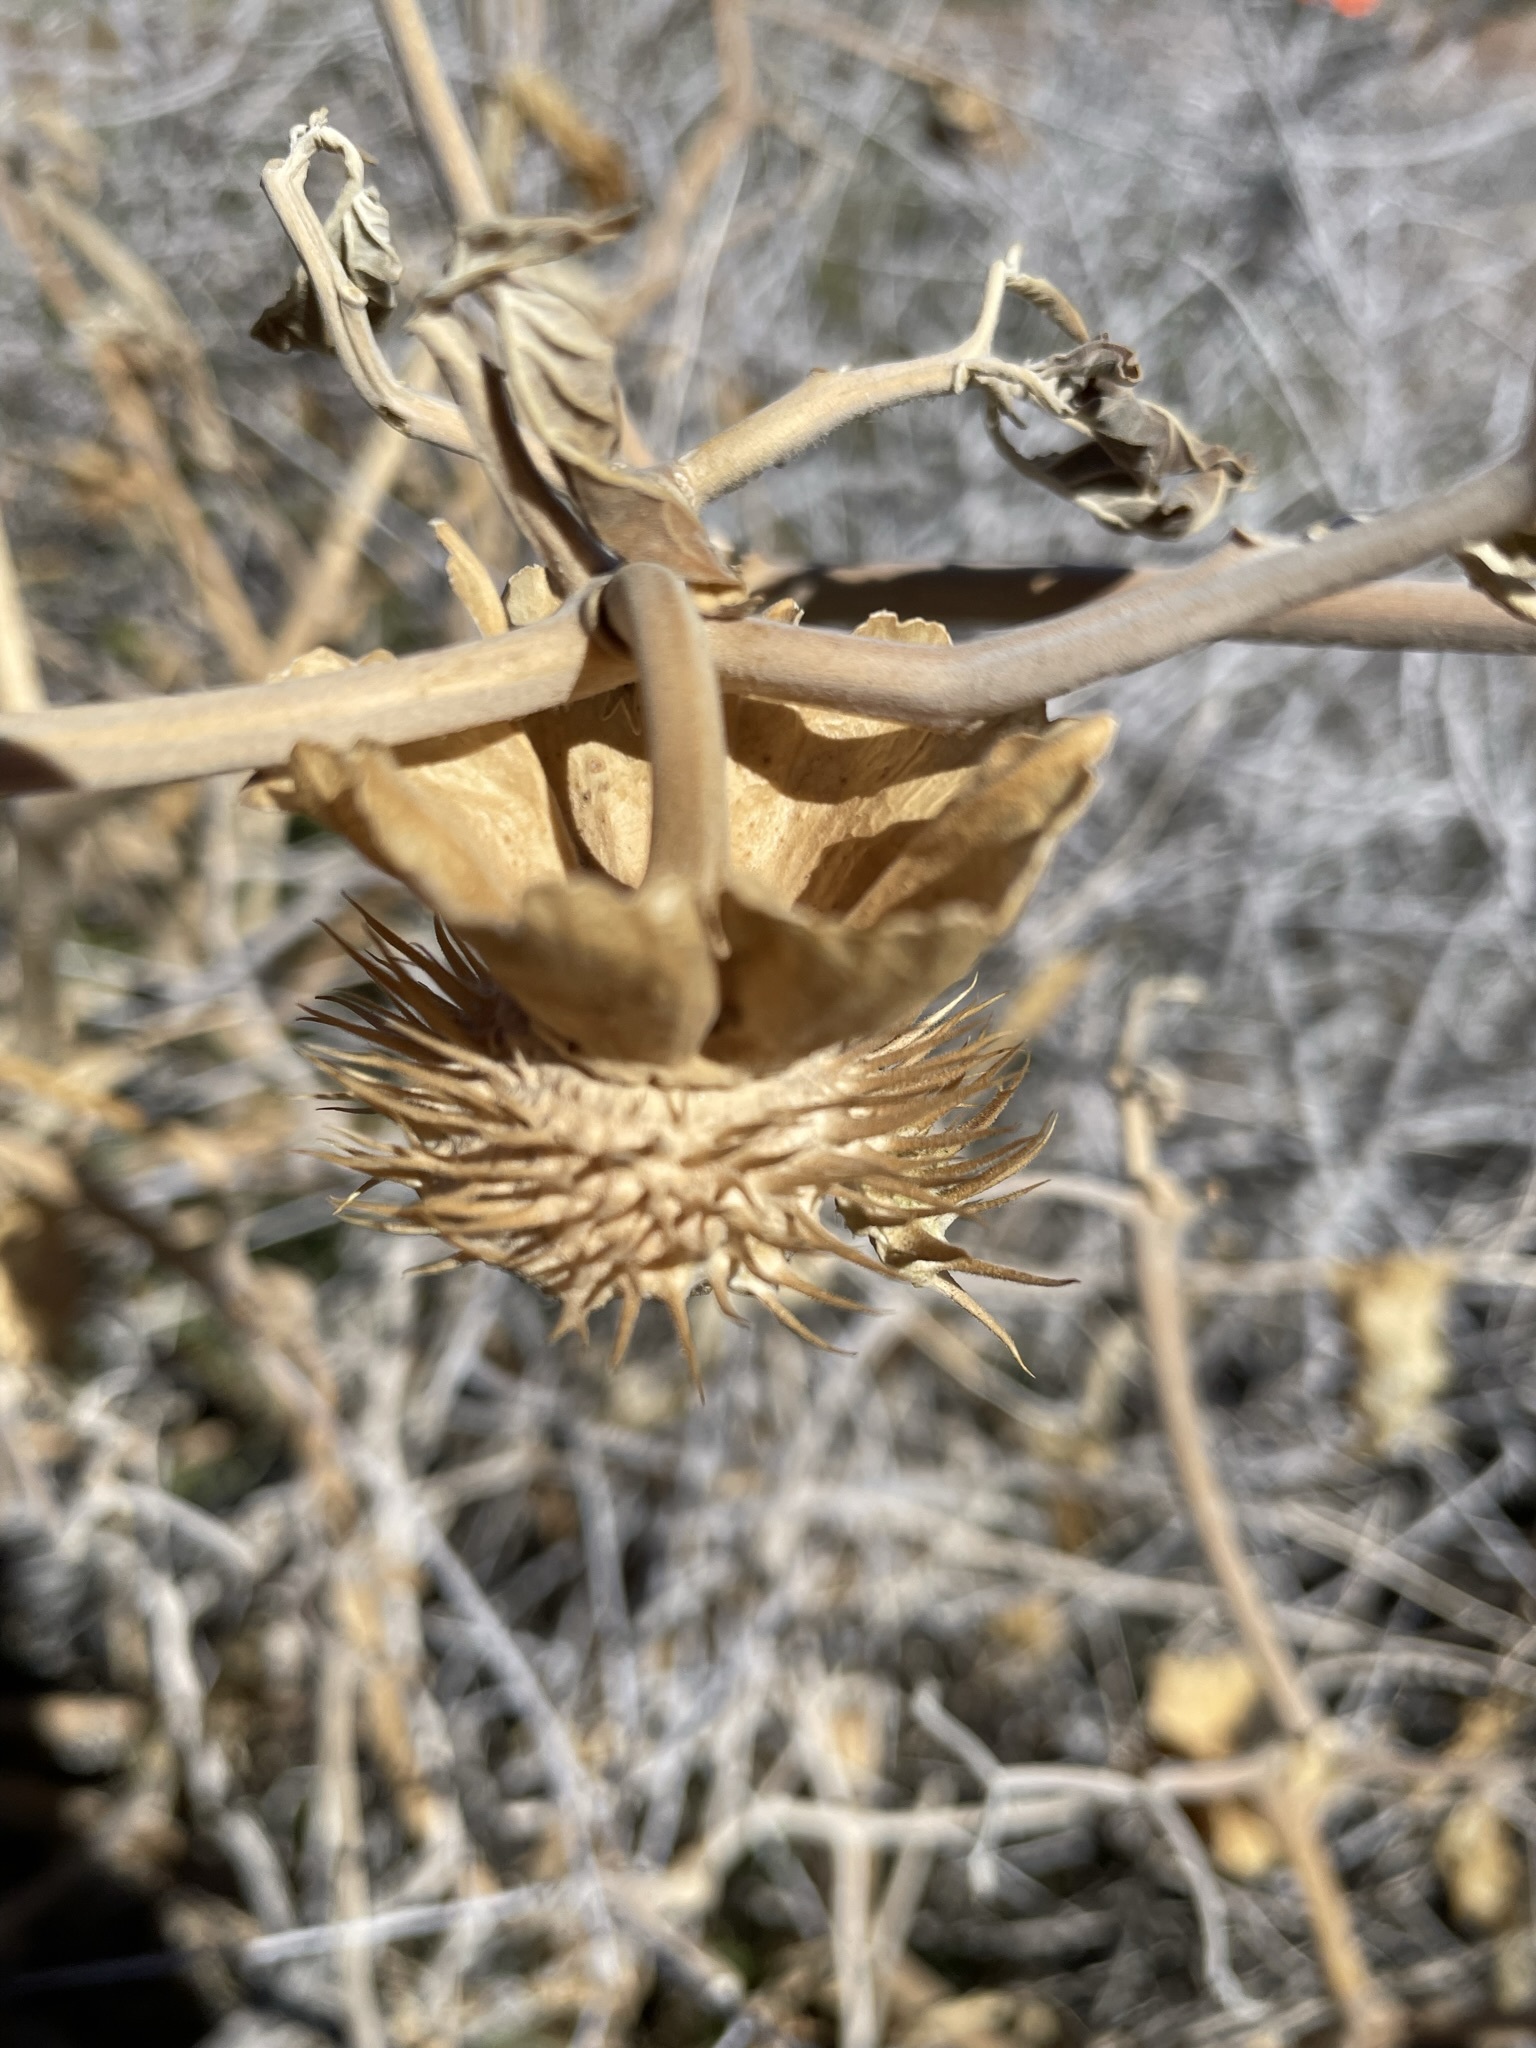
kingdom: Plantae
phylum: Tracheophyta
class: Magnoliopsida
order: Solanales
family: Solanaceae
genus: Datura
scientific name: Datura wrightii
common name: Sacred thorn-apple
